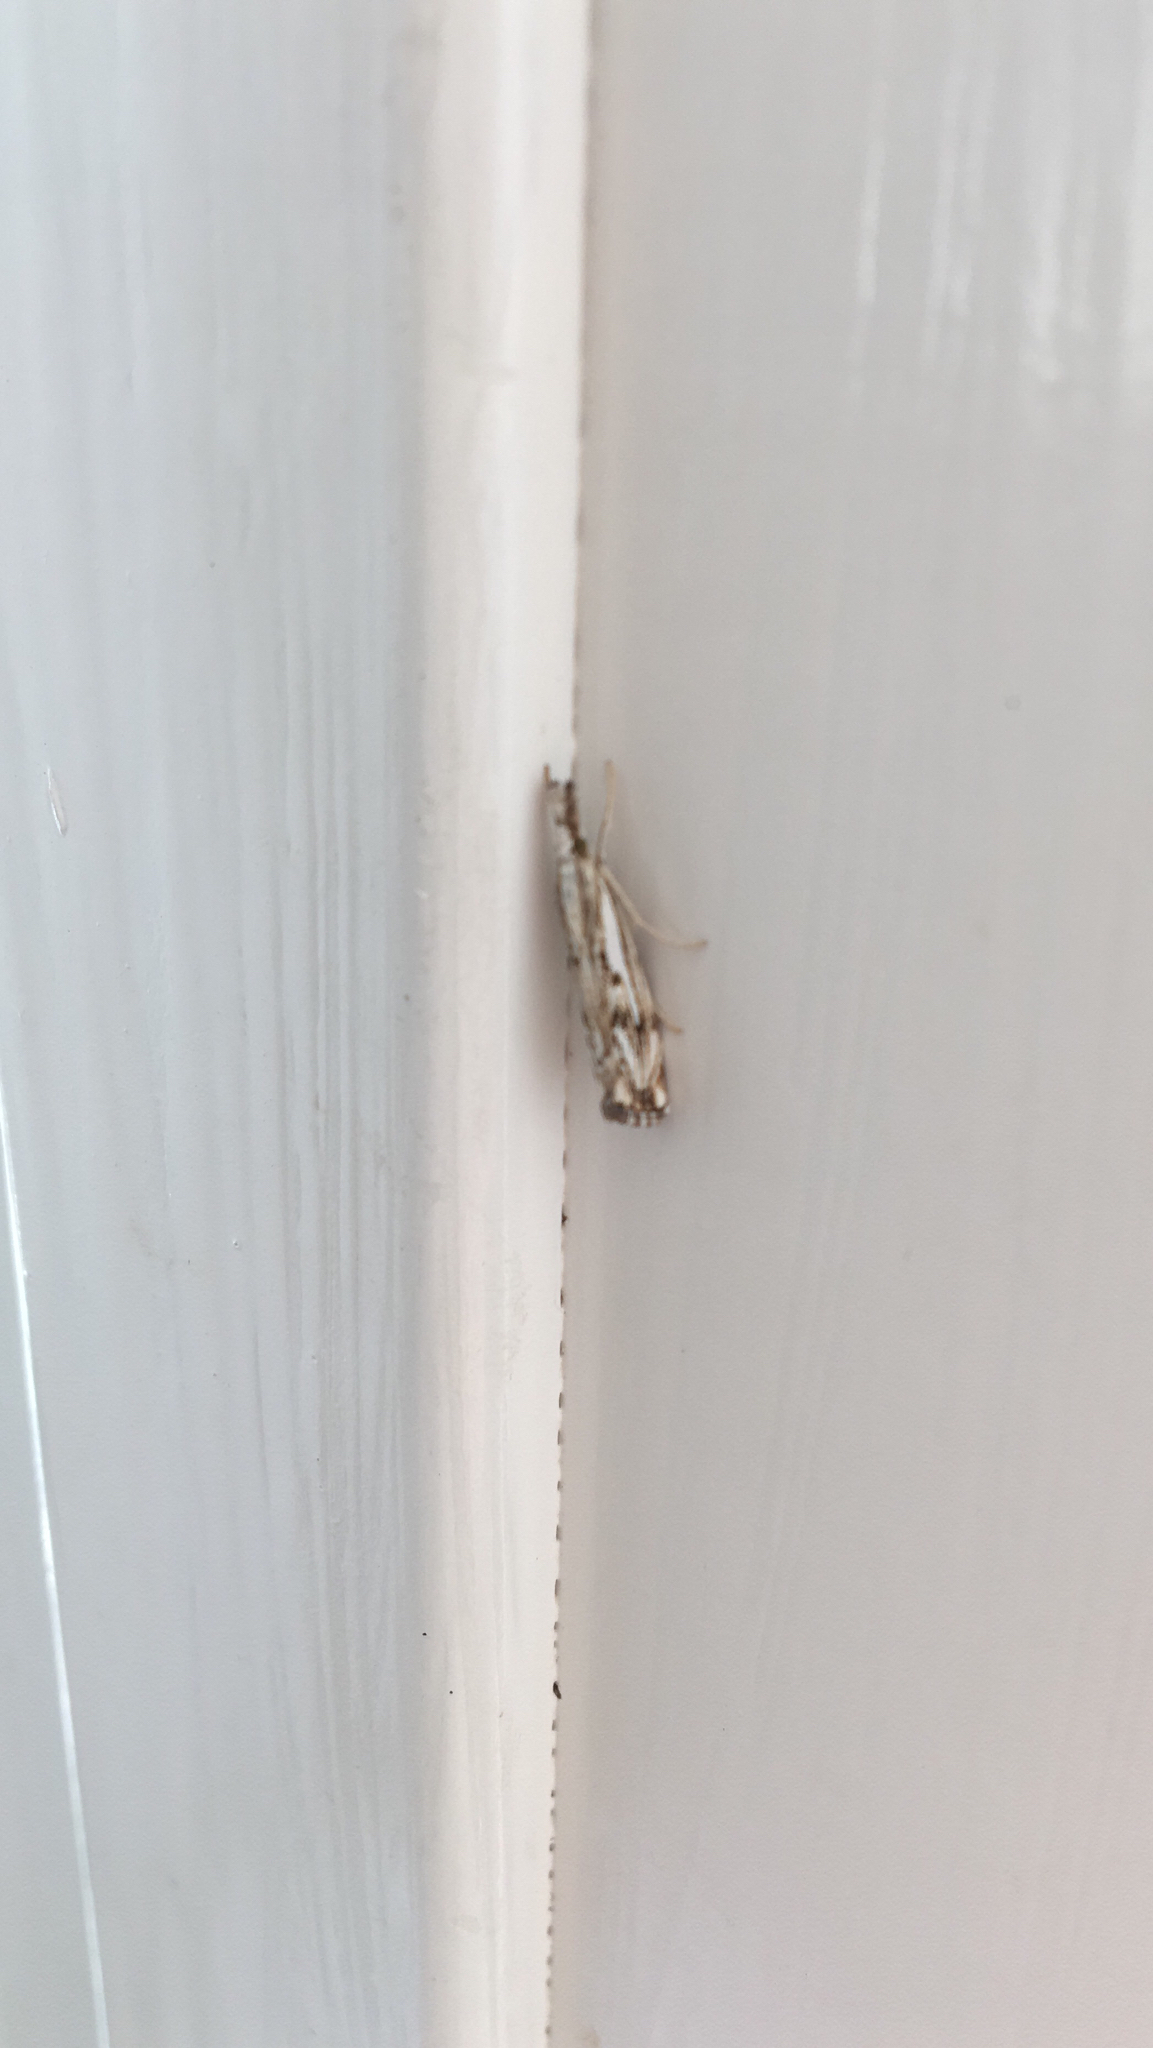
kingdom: Animalia
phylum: Arthropoda
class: Insecta
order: Lepidoptera
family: Crambidae
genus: Catoptria
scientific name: Catoptria falsella
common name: Chequered grass-veneer
